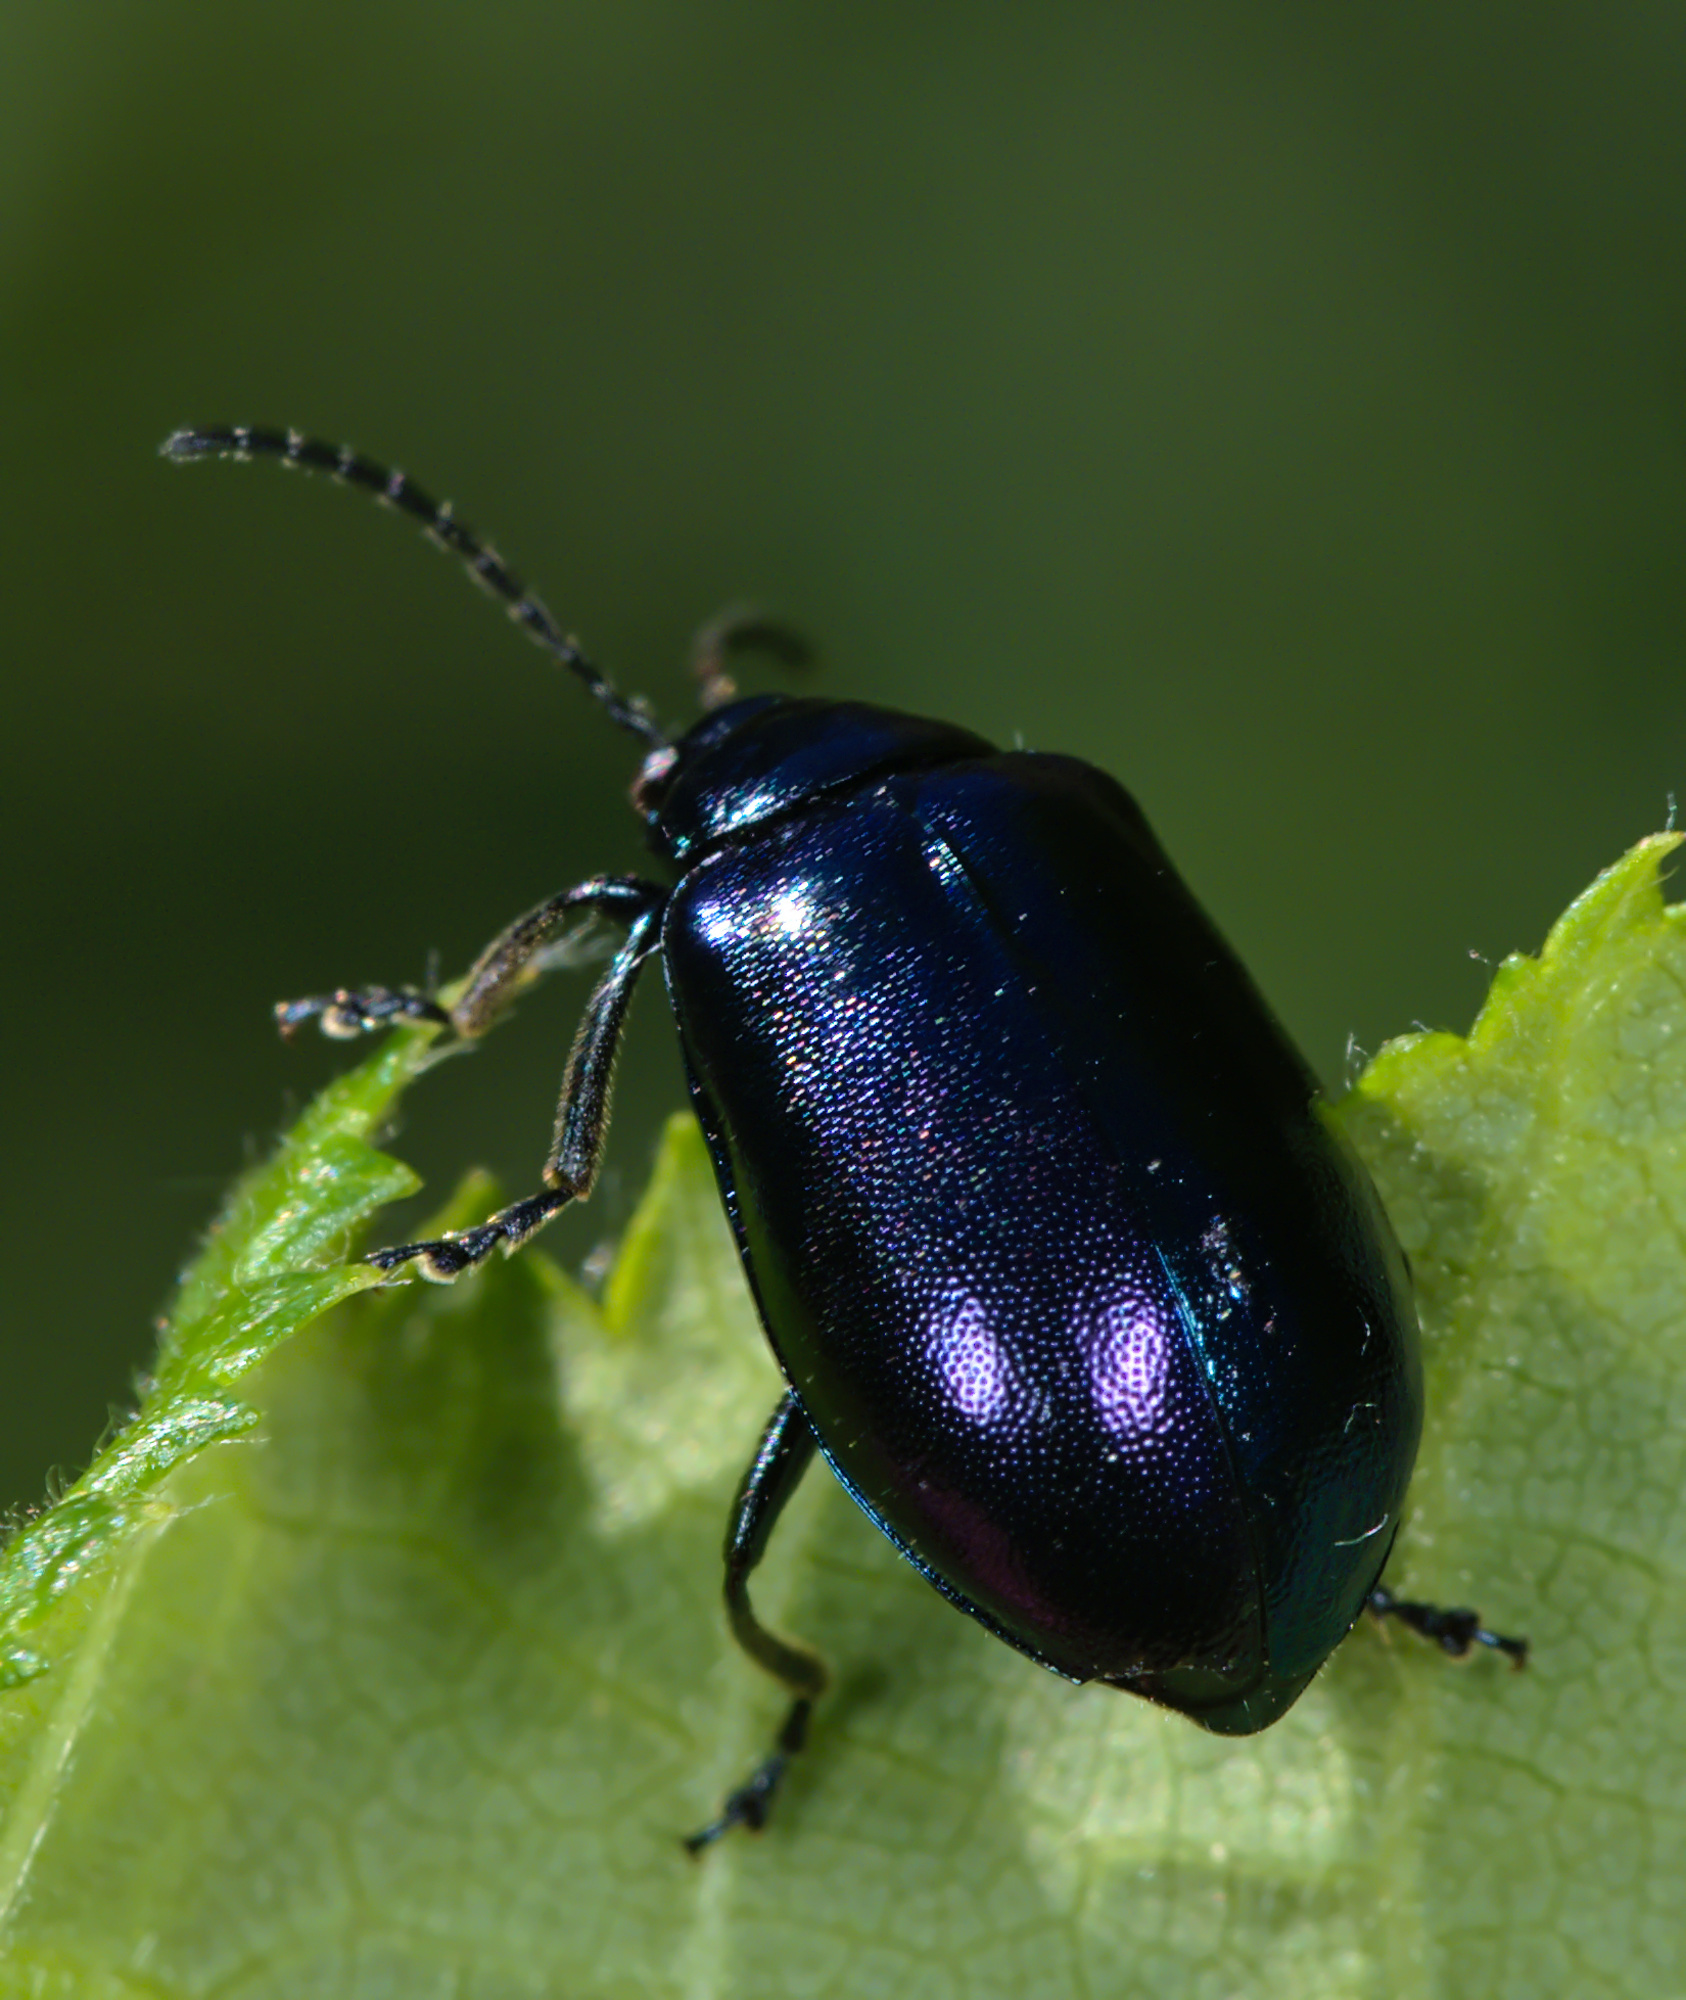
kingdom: Animalia
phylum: Arthropoda
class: Insecta
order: Coleoptera
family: Chrysomelidae
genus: Agelastica
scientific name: Agelastica alni
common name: Alder leaf beetle
